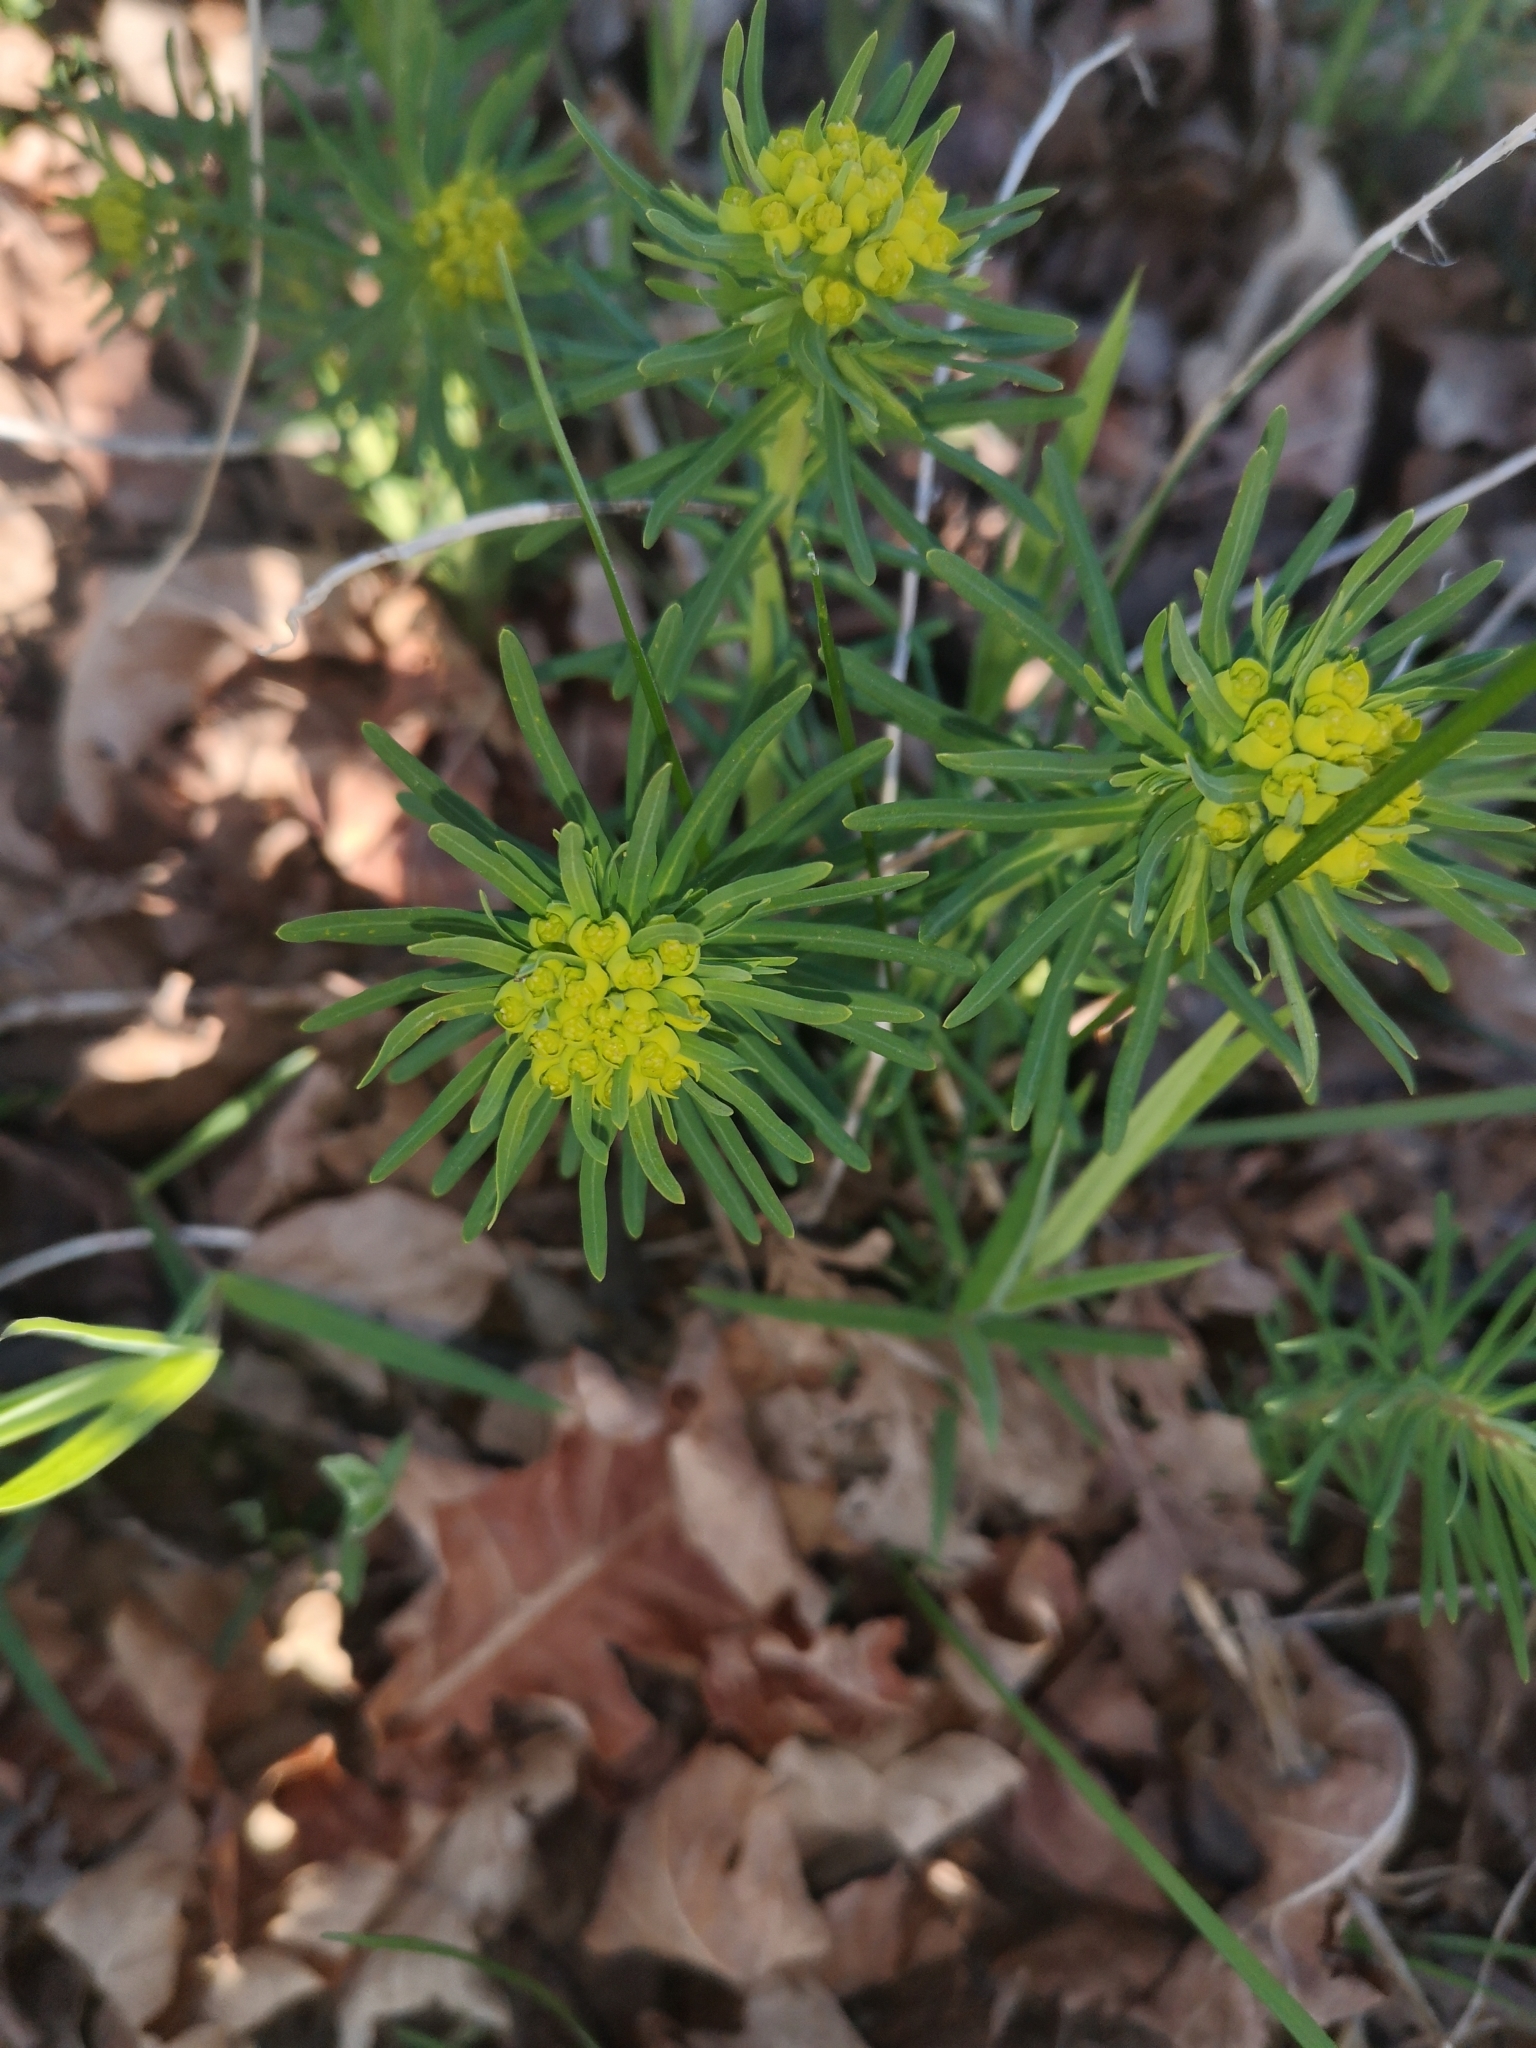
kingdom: Plantae
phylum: Tracheophyta
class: Magnoliopsida
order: Malpighiales
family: Euphorbiaceae
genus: Euphorbia
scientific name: Euphorbia cyparissias
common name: Cypress spurge
